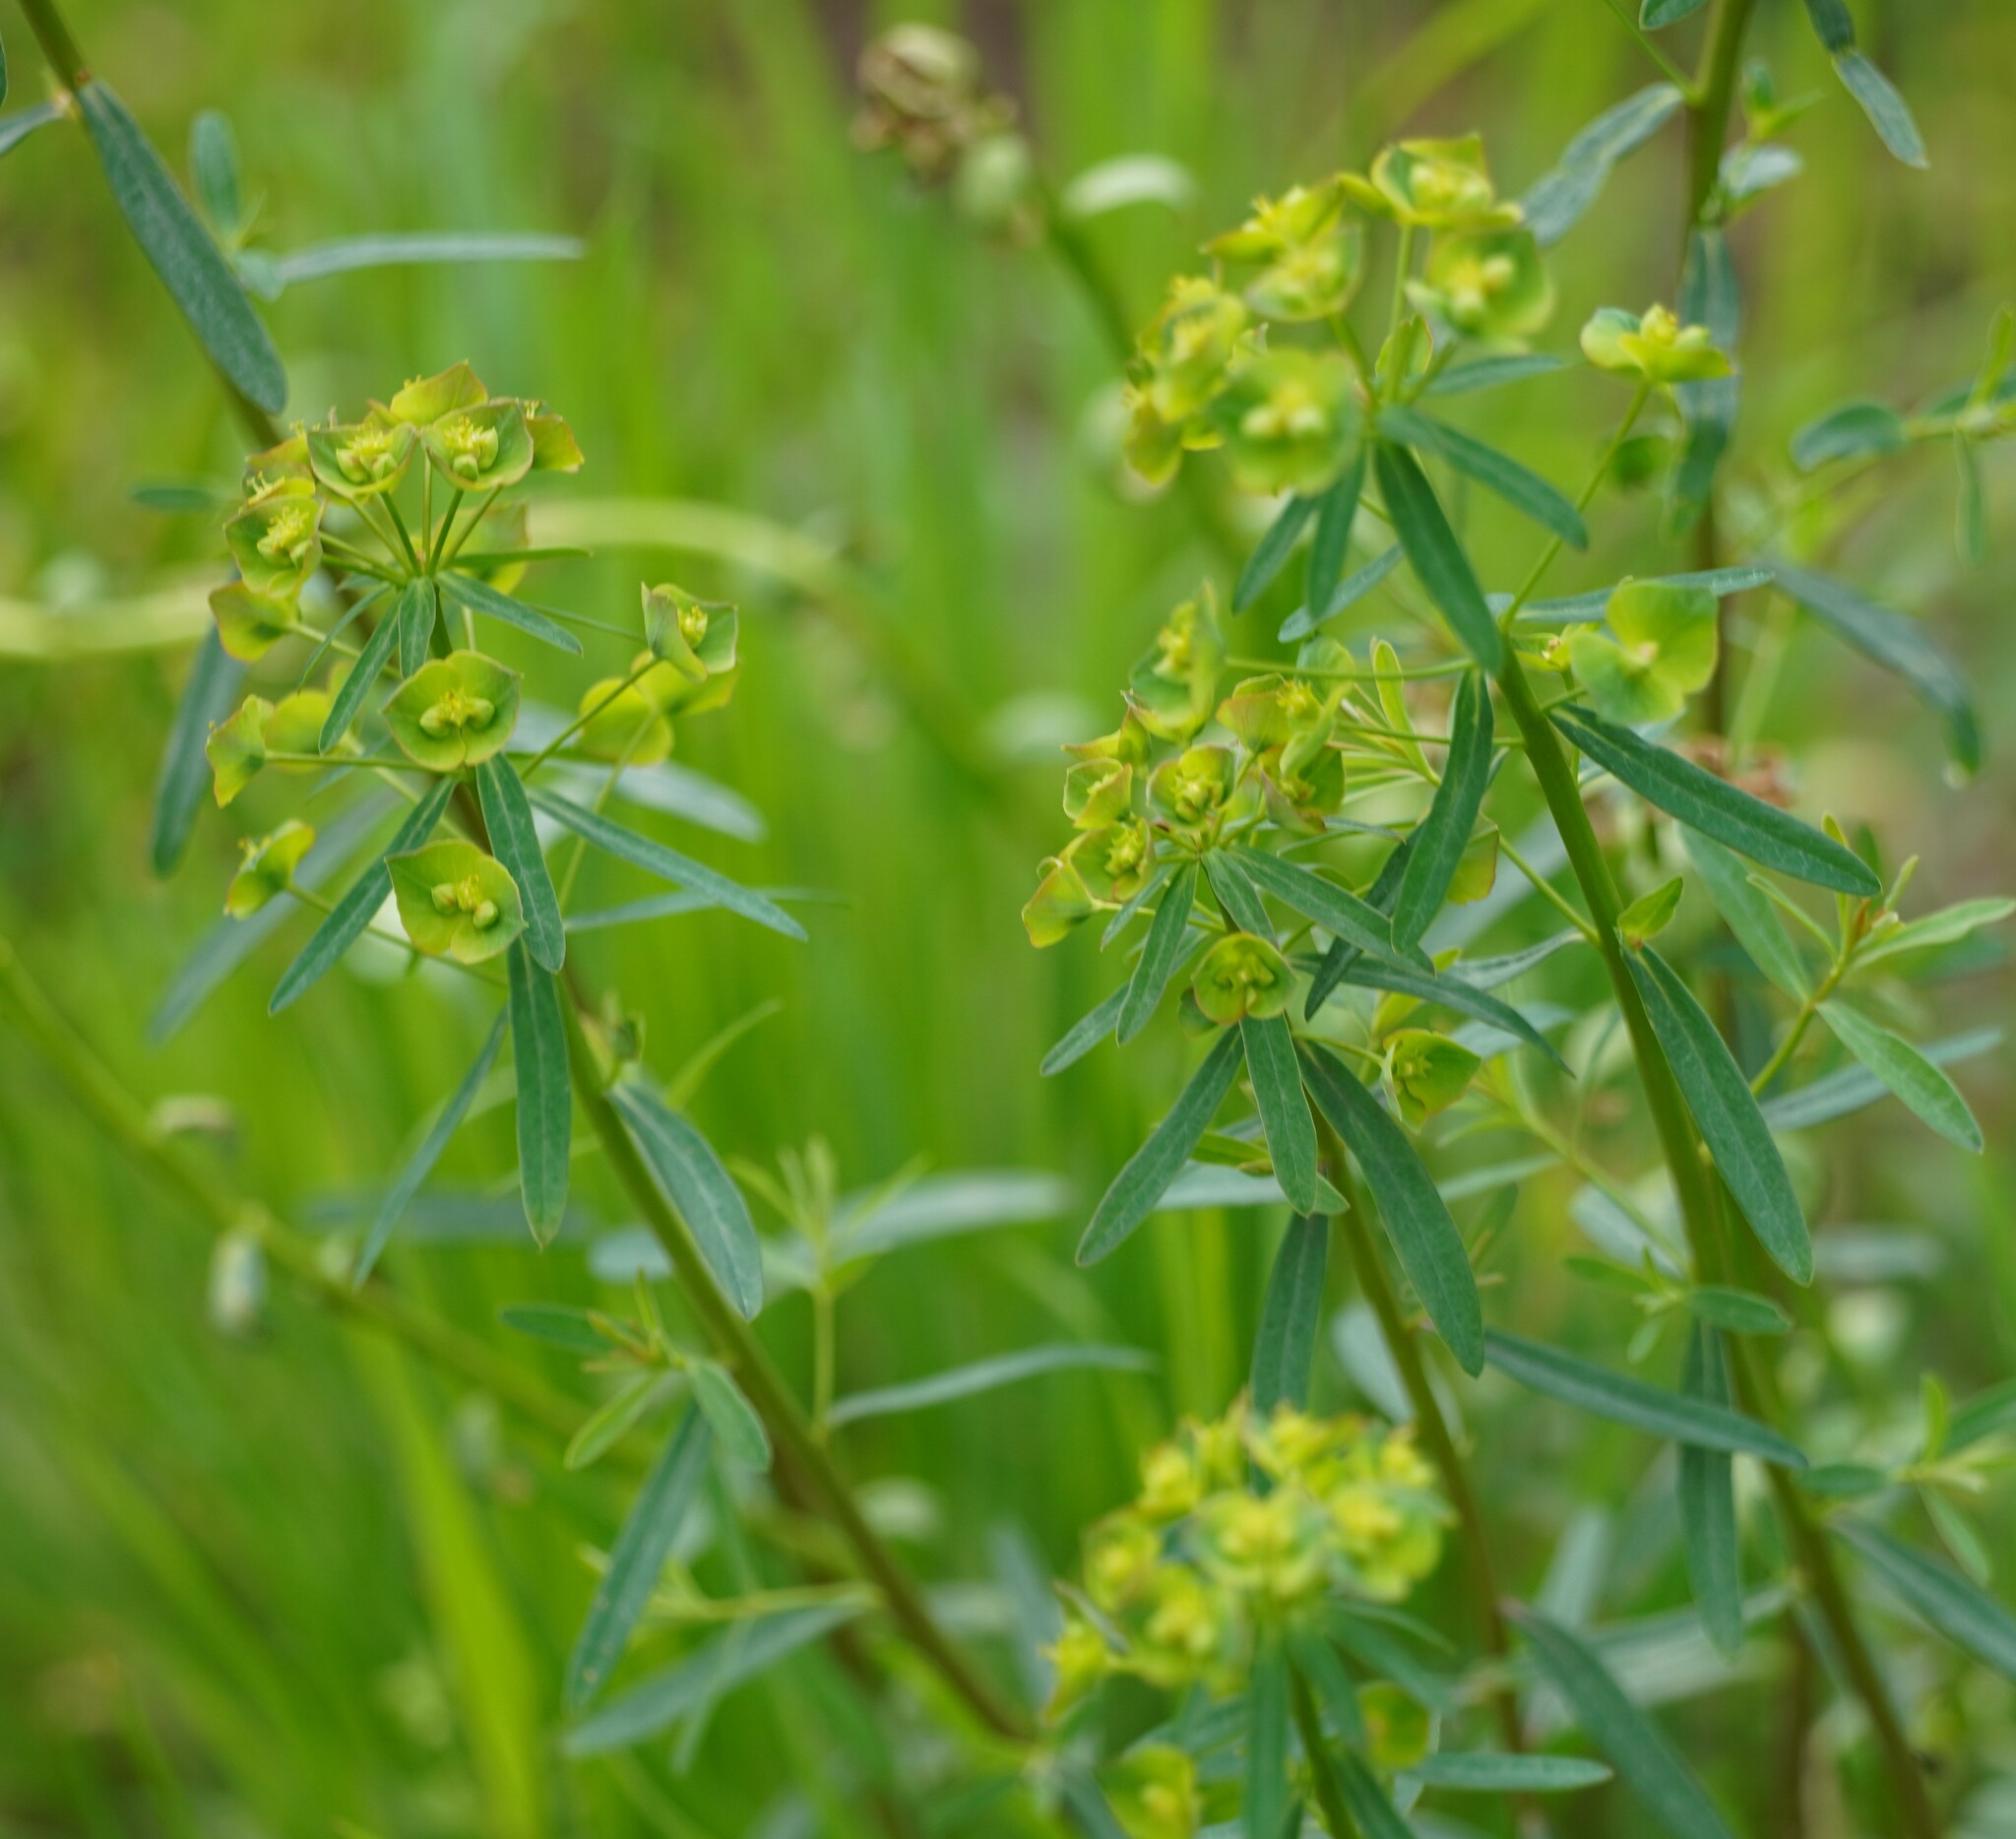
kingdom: Plantae
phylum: Tracheophyta
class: Magnoliopsida
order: Malpighiales
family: Euphorbiaceae
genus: Euphorbia
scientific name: Euphorbia esula
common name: Leafy spurge
